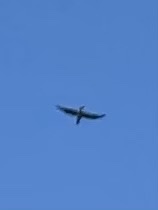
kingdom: Animalia
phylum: Chordata
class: Aves
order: Coraciiformes
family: Alcedinidae
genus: Megaceryle
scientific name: Megaceryle alcyon
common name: Belted kingfisher
